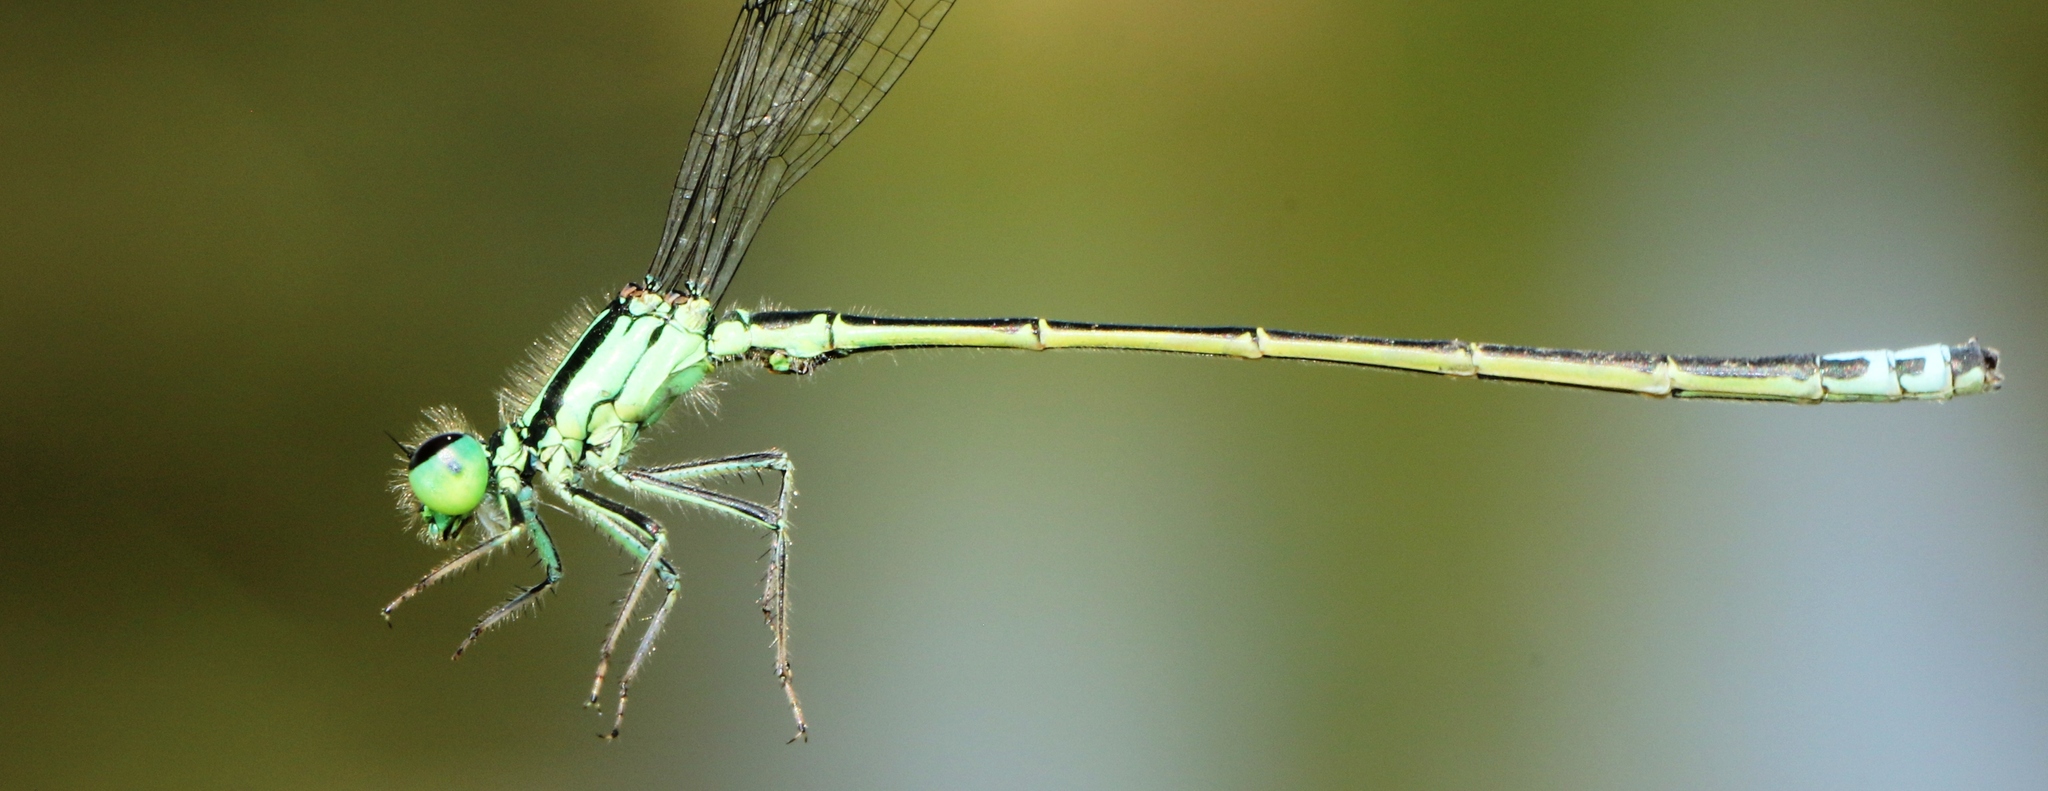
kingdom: Animalia
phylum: Arthropoda
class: Insecta
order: Odonata
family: Coenagrionidae
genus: Ischnura
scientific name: Ischnura verticalis
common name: Eastern forktail
